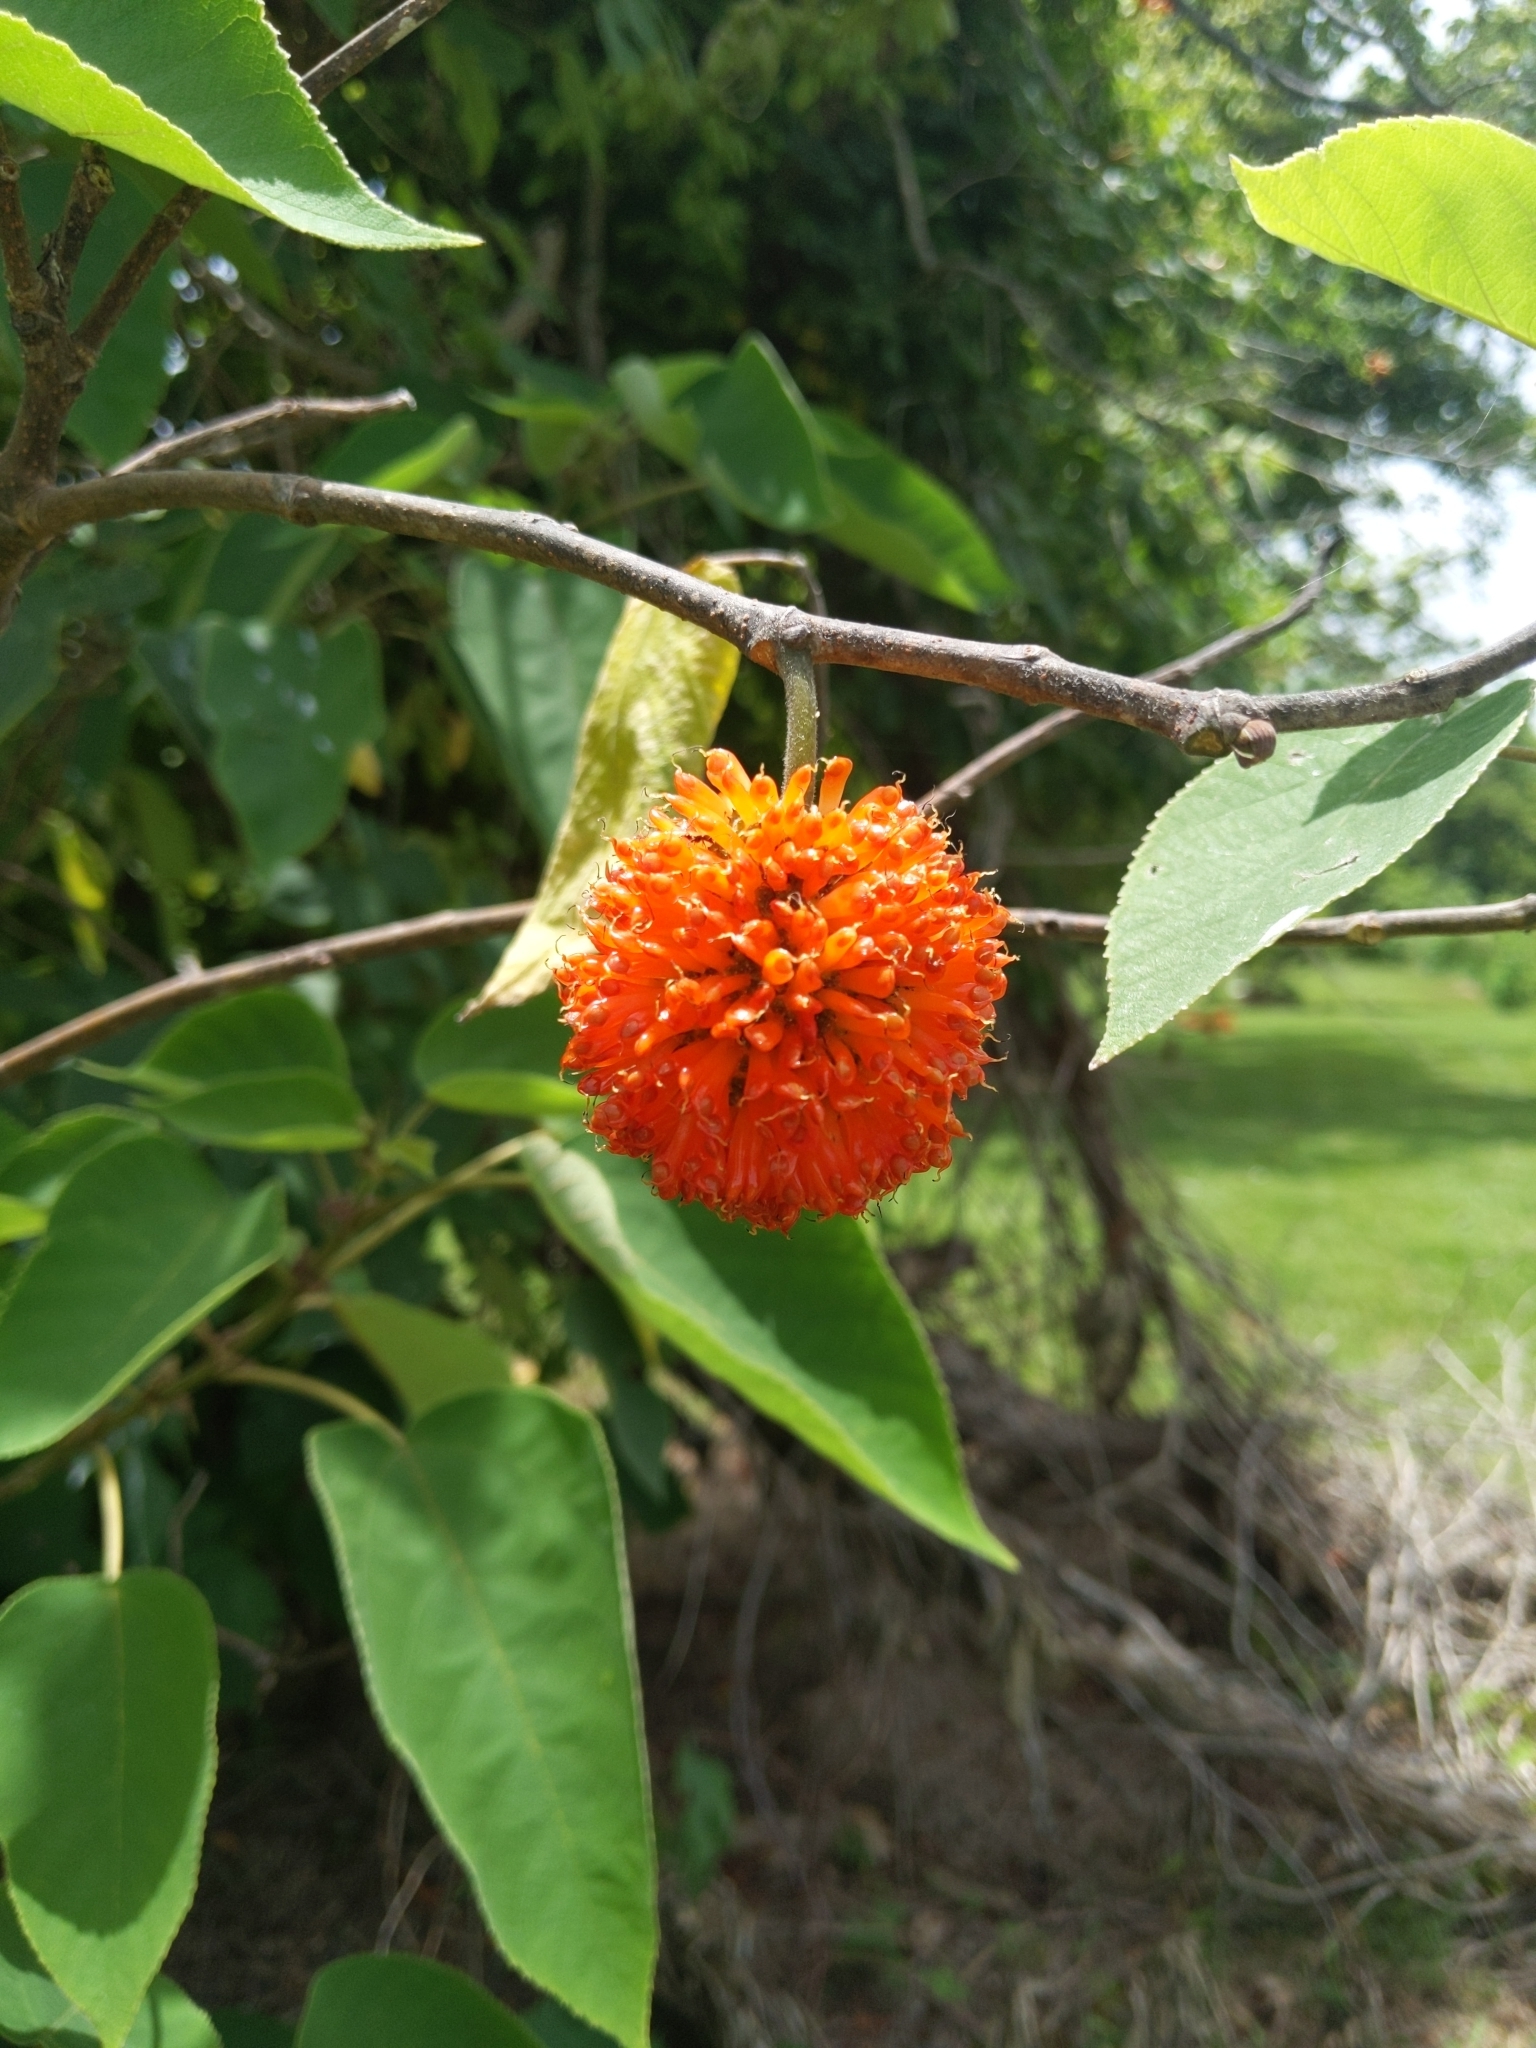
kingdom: Plantae
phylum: Tracheophyta
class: Magnoliopsida
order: Rosales
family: Moraceae
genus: Broussonetia
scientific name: Broussonetia papyrifera
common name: Paper mulberry
